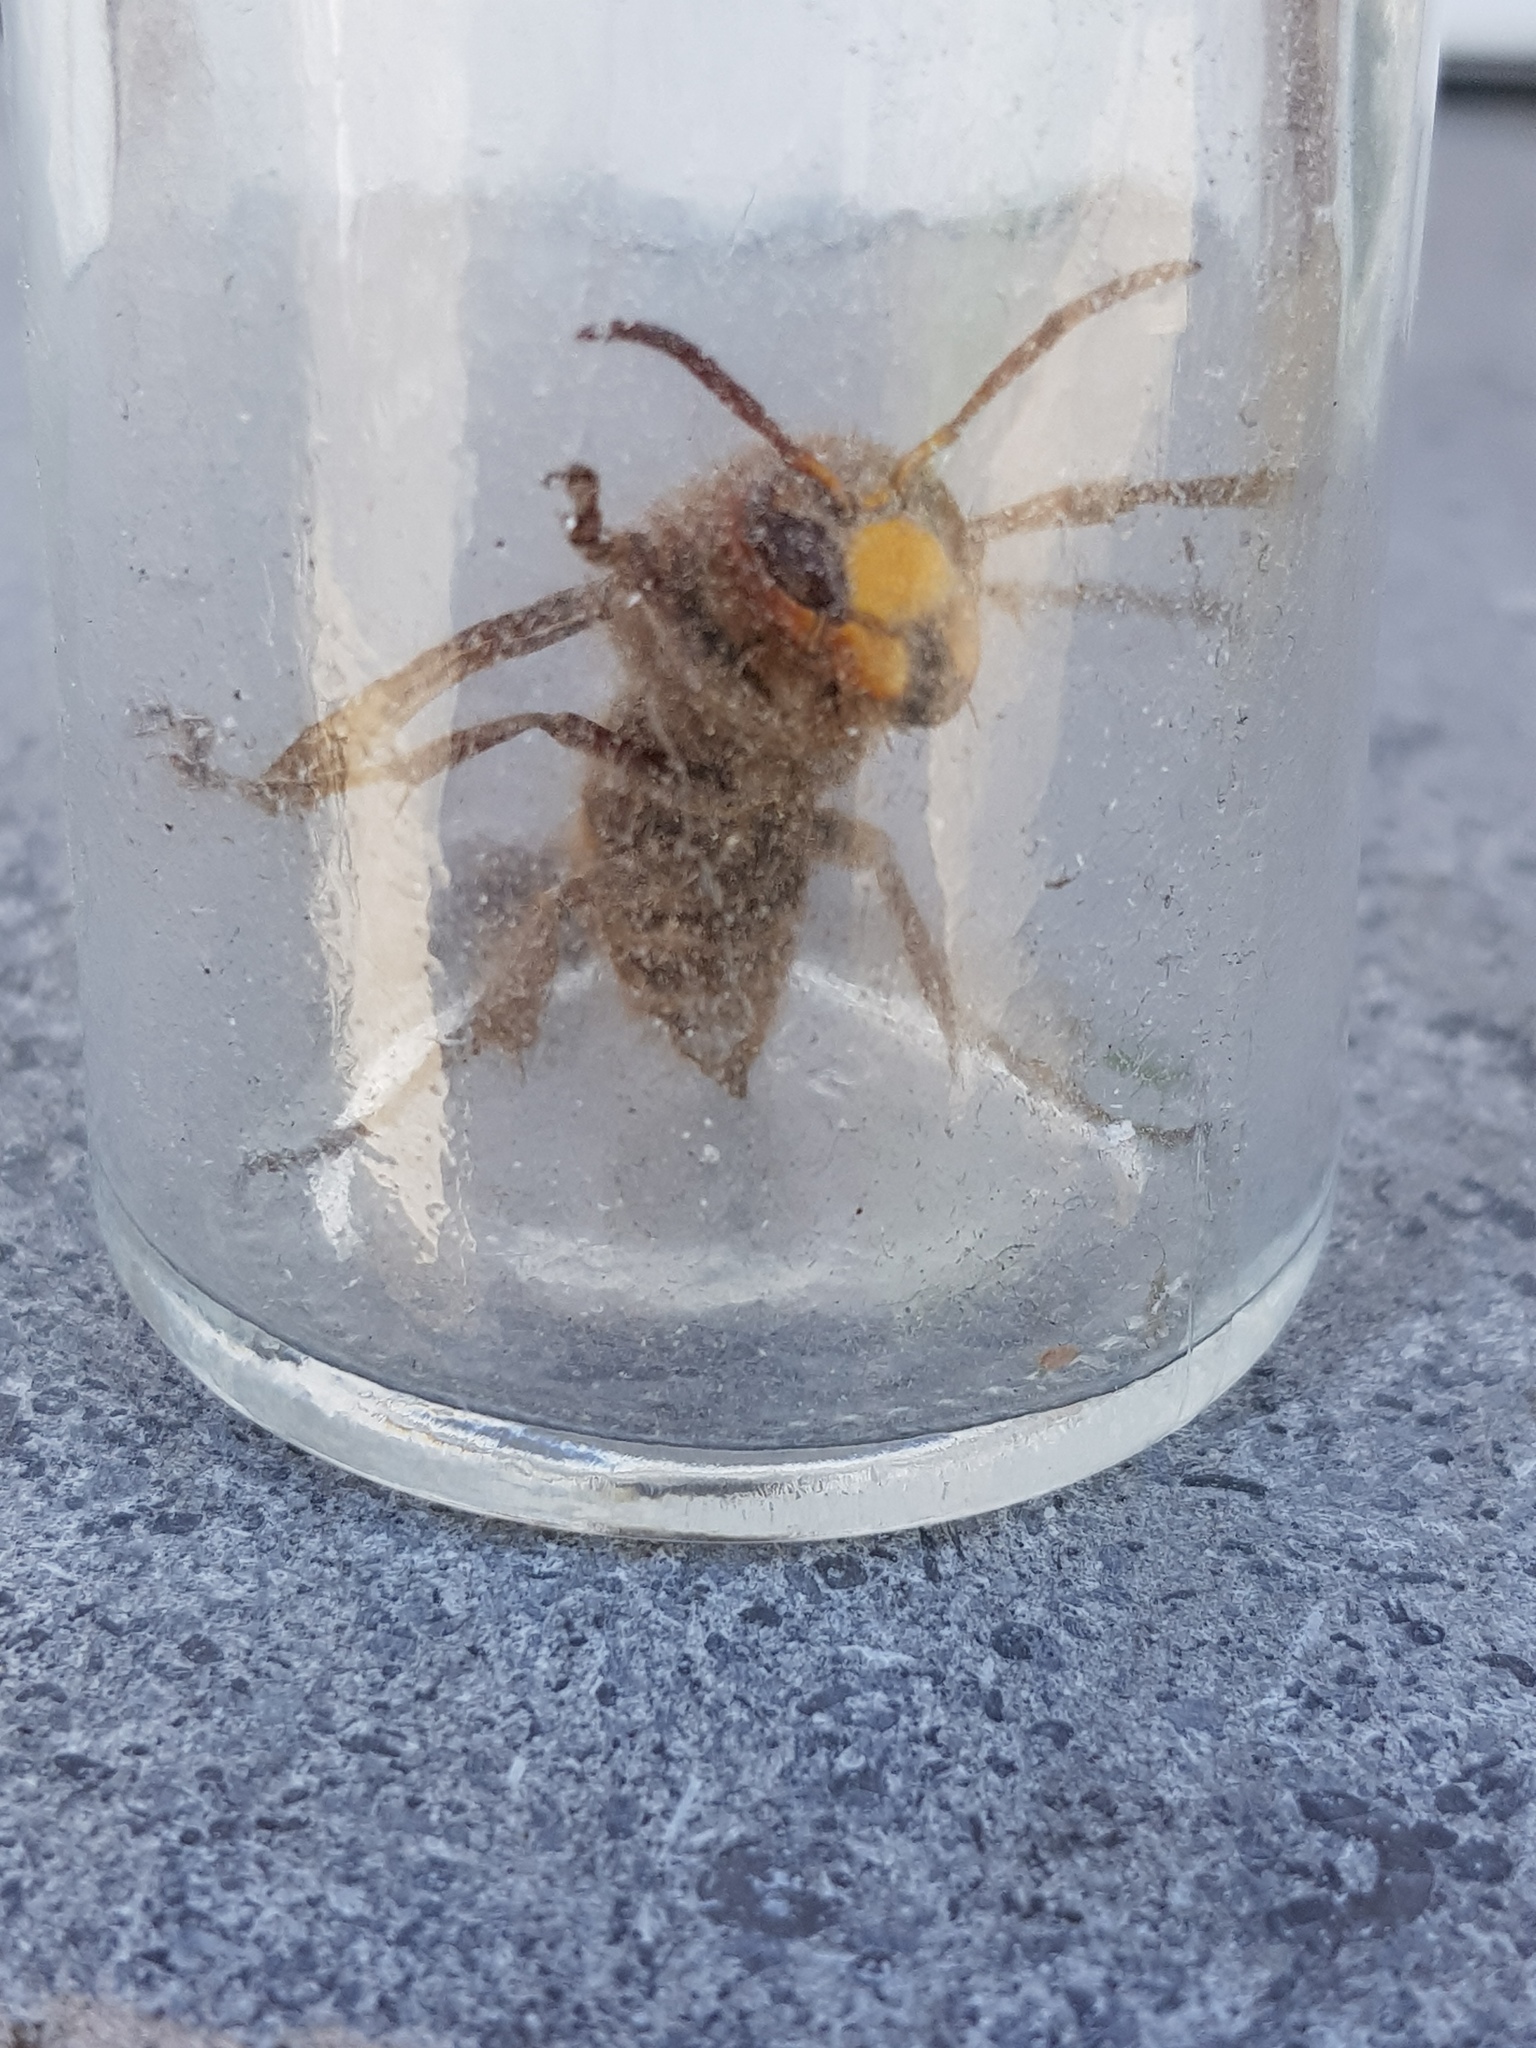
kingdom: Animalia
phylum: Arthropoda
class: Insecta
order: Hymenoptera
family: Vespidae
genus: Vespa
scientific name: Vespa crabro
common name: Hornet
